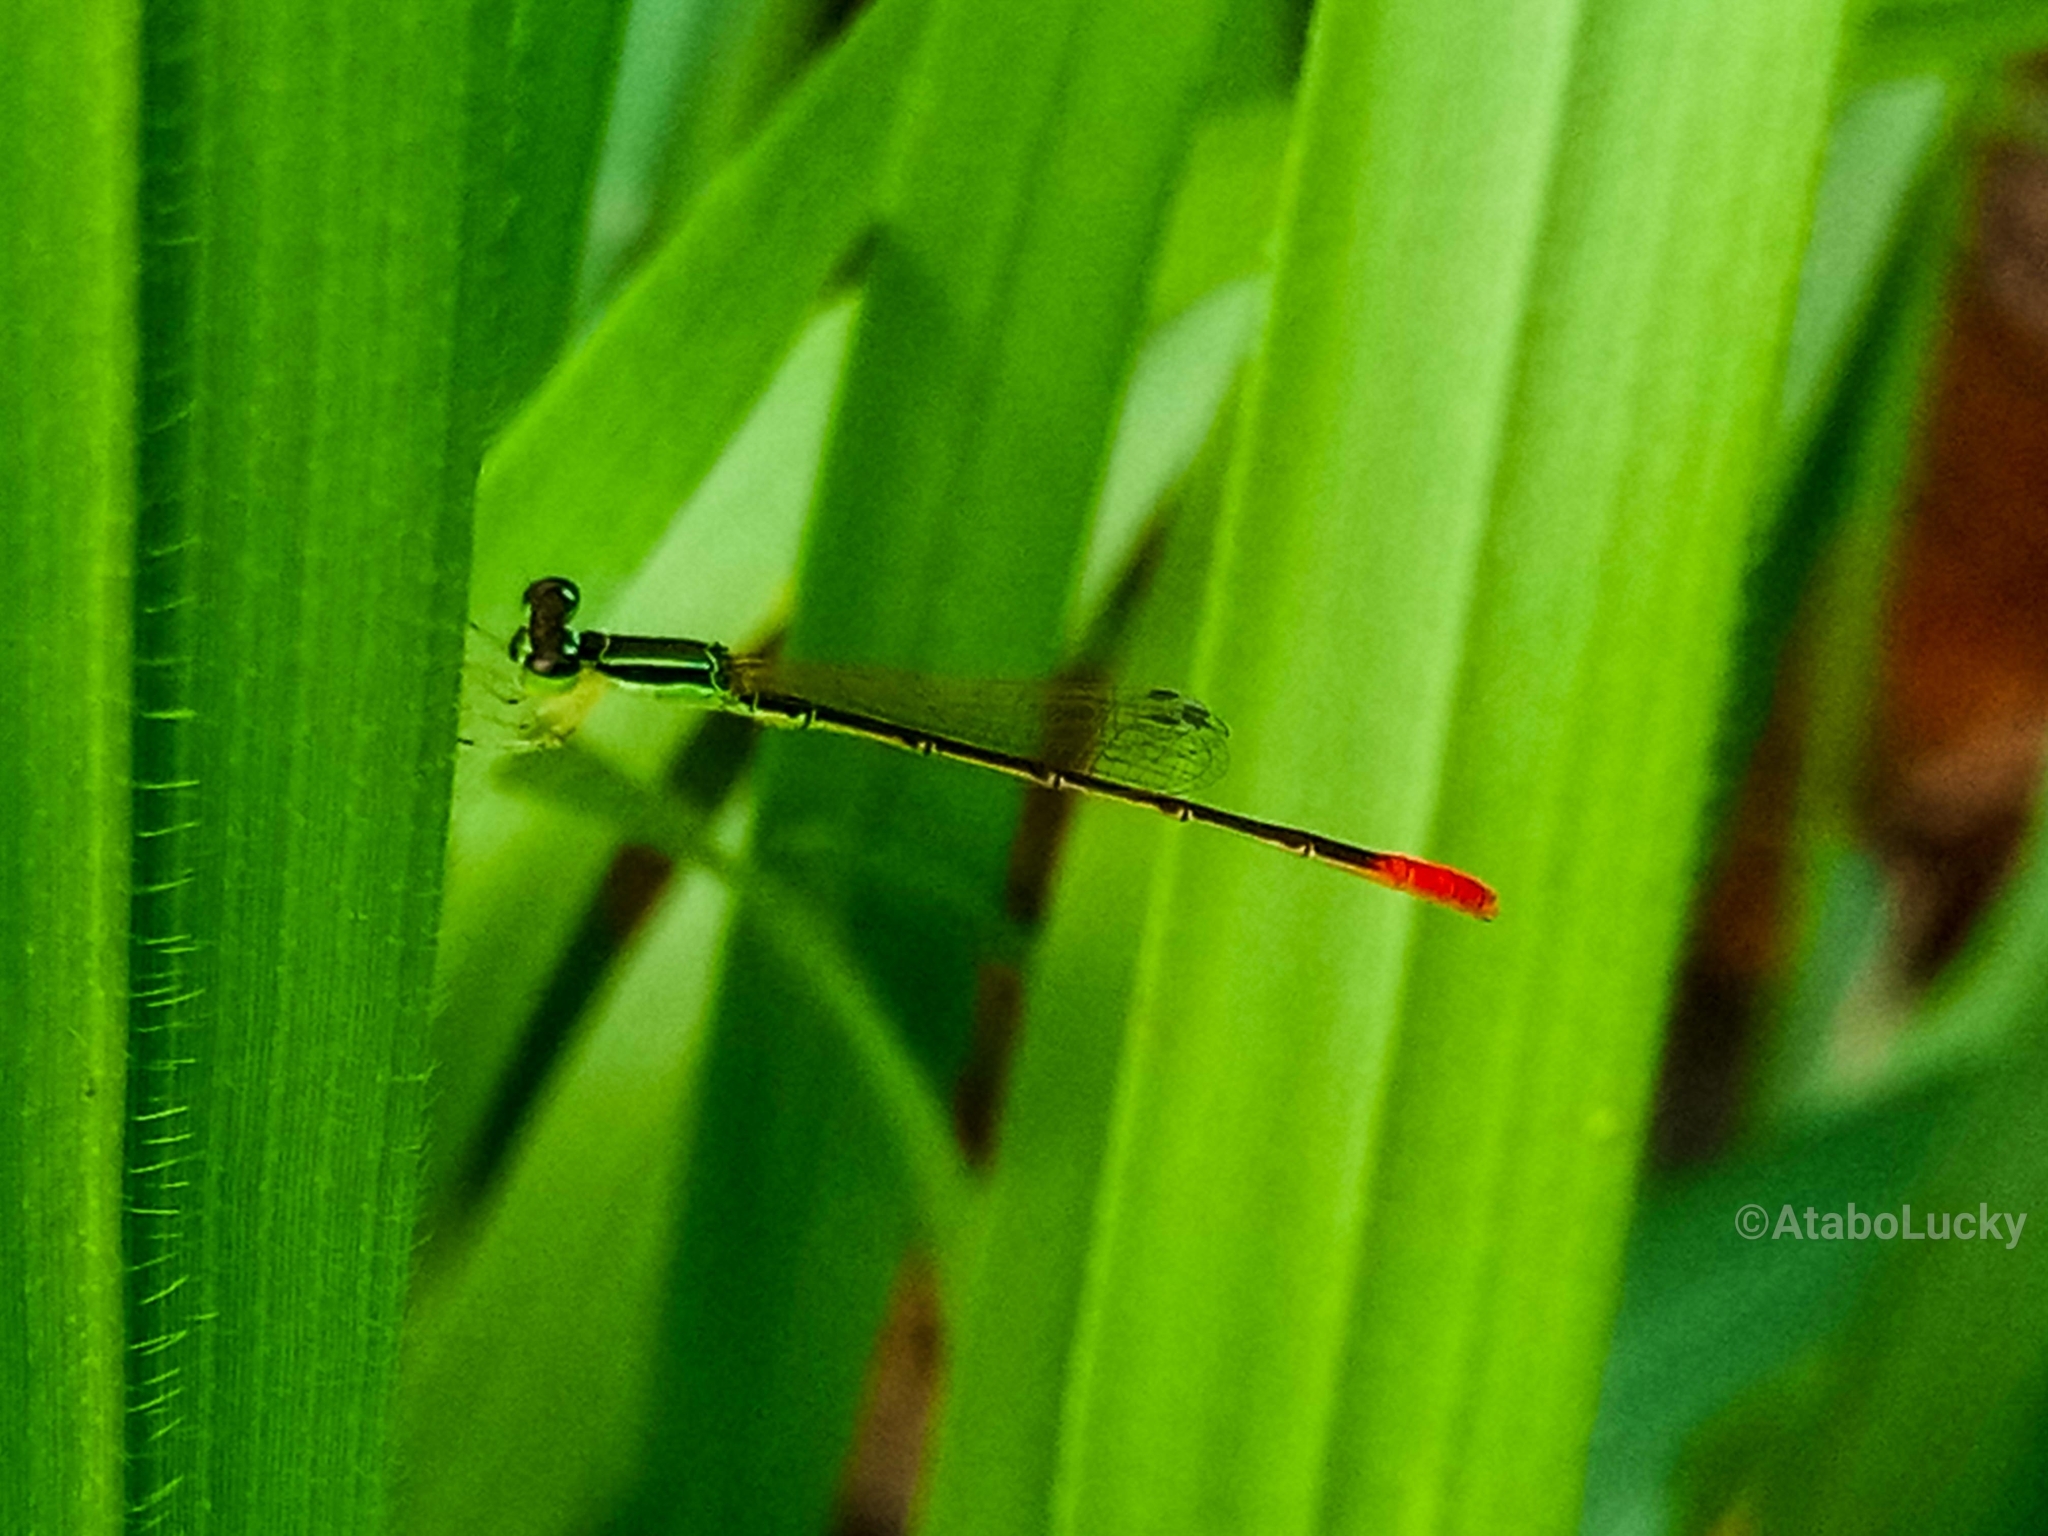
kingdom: Animalia
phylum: Arthropoda
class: Insecta
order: Odonata
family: Coenagrionidae
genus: Agriocnemis
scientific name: Agriocnemis exilis
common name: Little wisp
